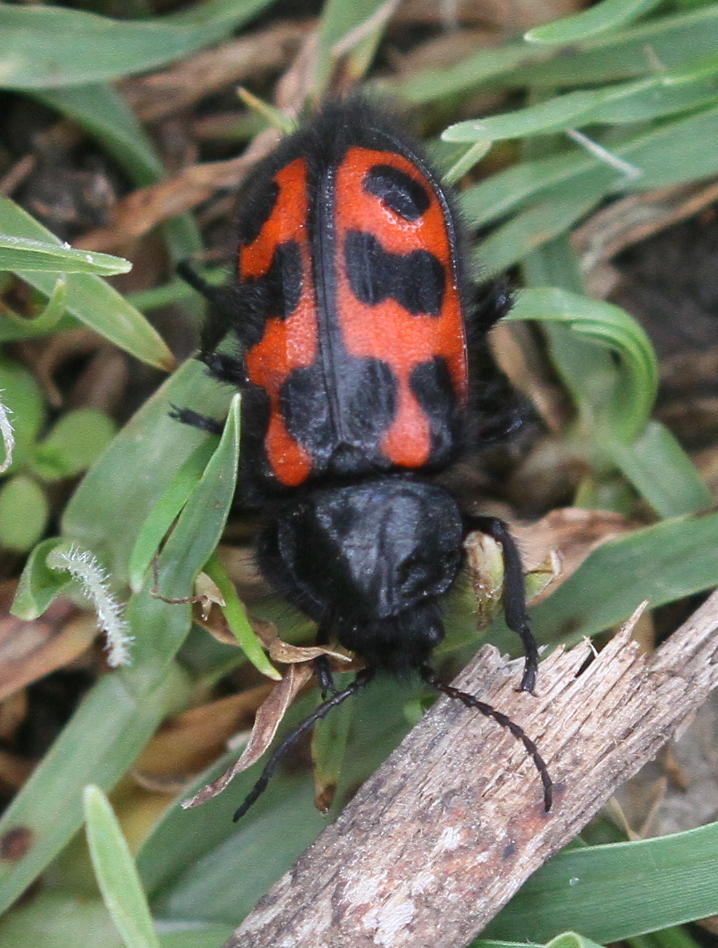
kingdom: Animalia
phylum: Arthropoda
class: Insecta
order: Coleoptera
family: Melyridae
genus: Astylus
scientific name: Astylus
